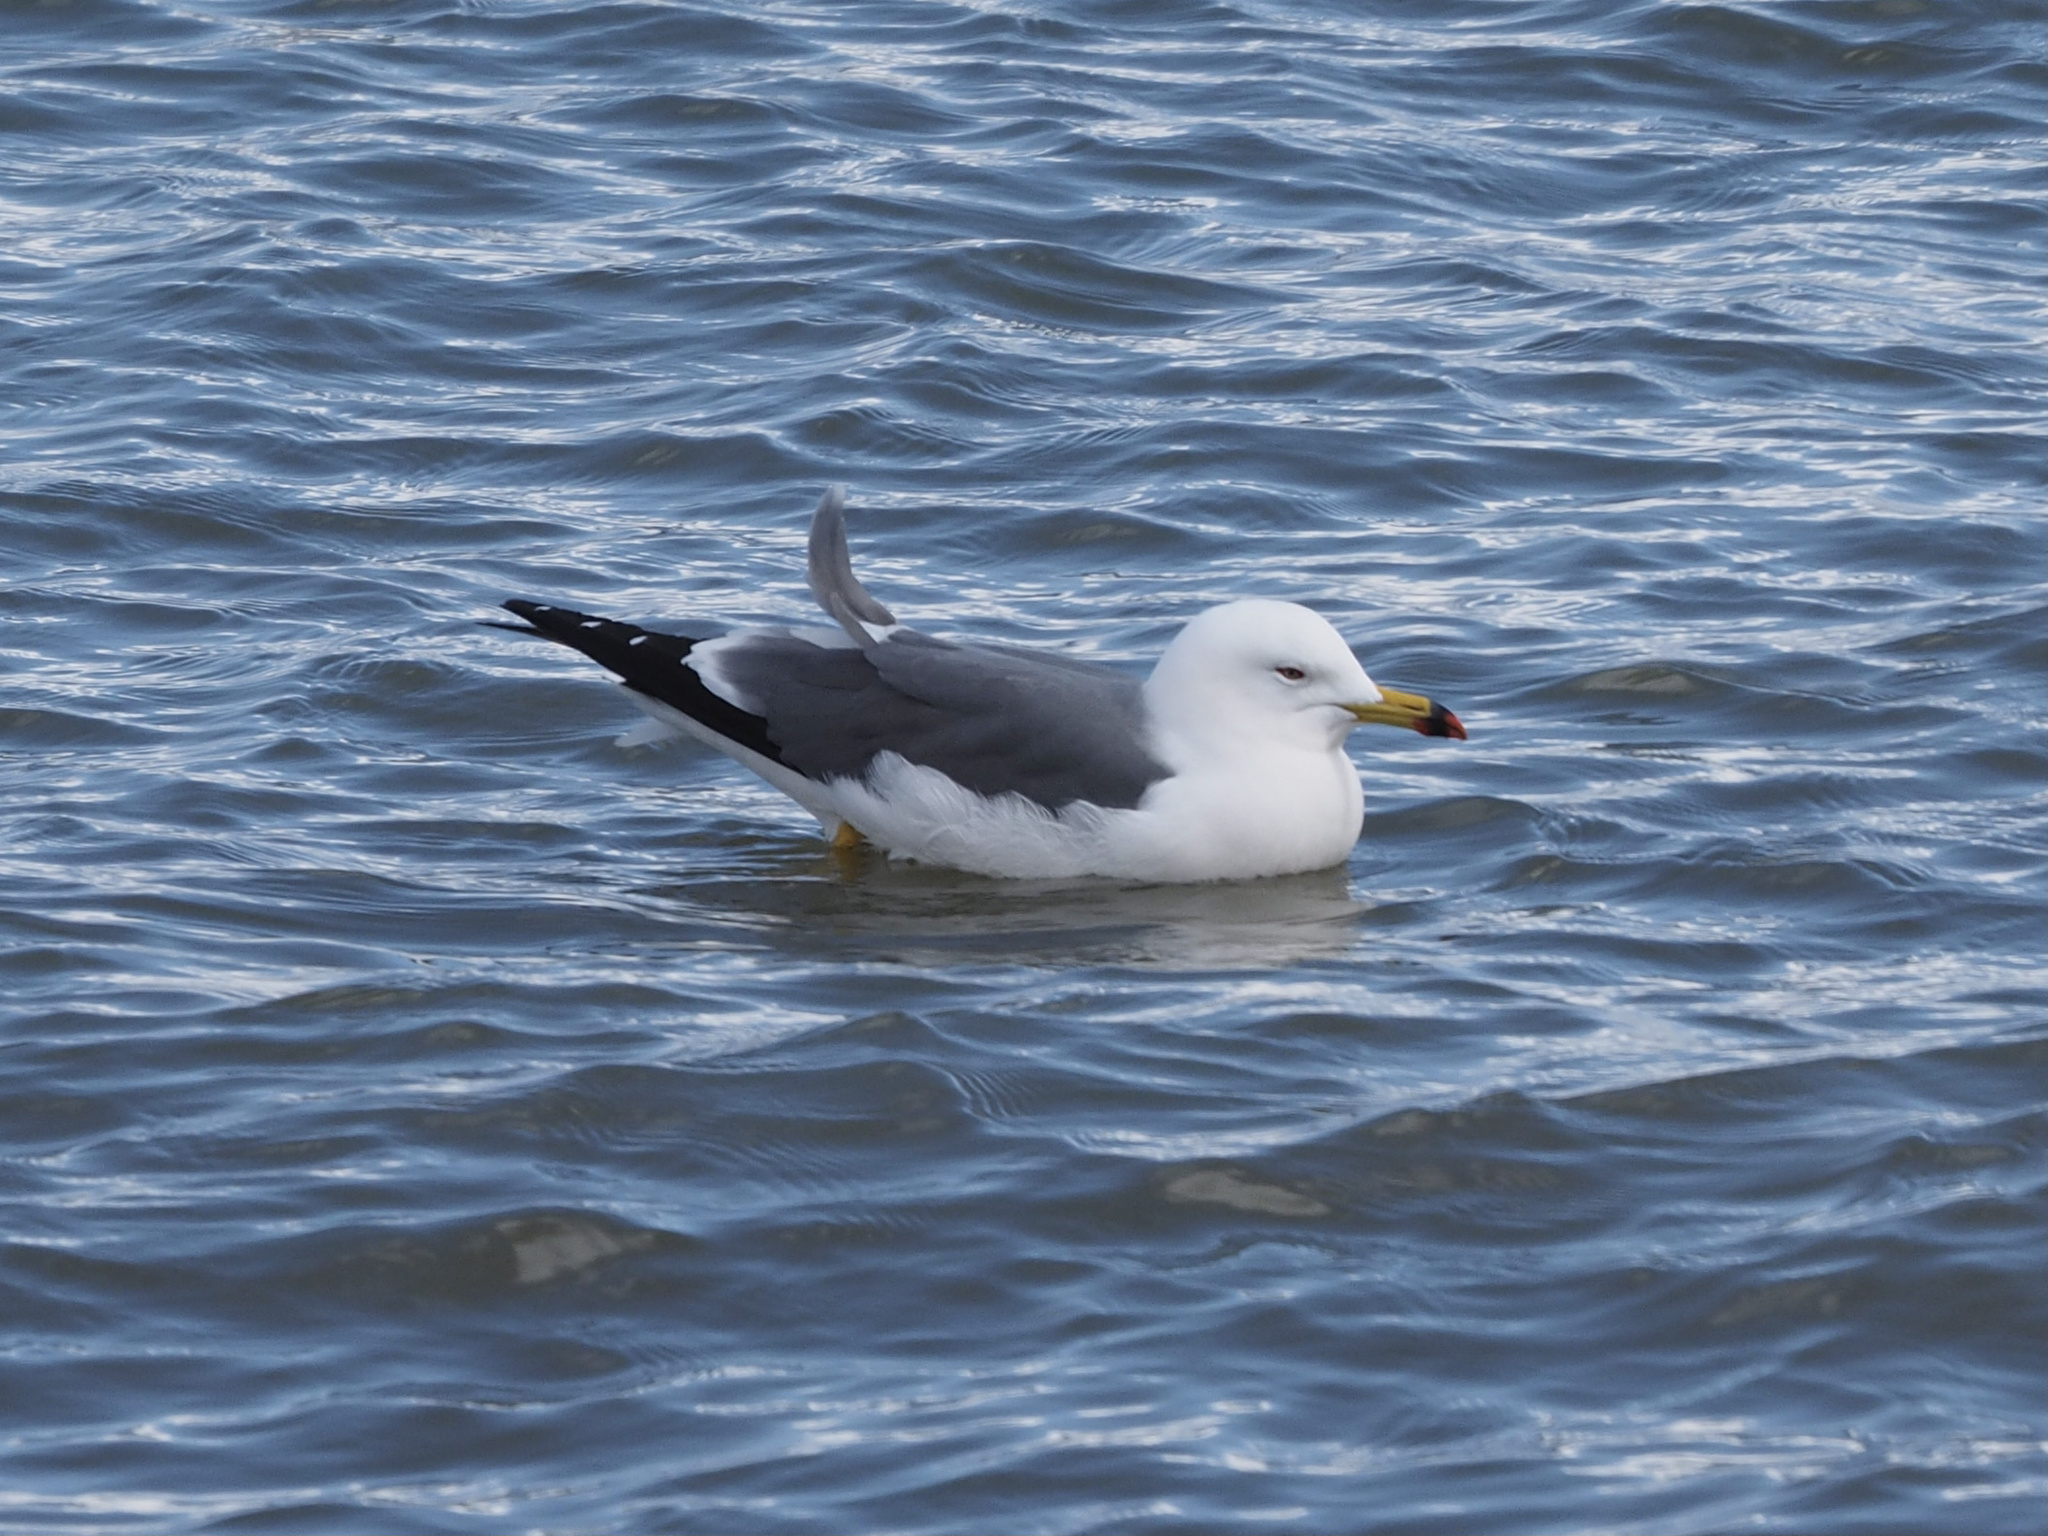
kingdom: Animalia
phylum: Chordata
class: Aves
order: Charadriiformes
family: Laridae
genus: Larus
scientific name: Larus crassirostris
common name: Black-tailed gull
